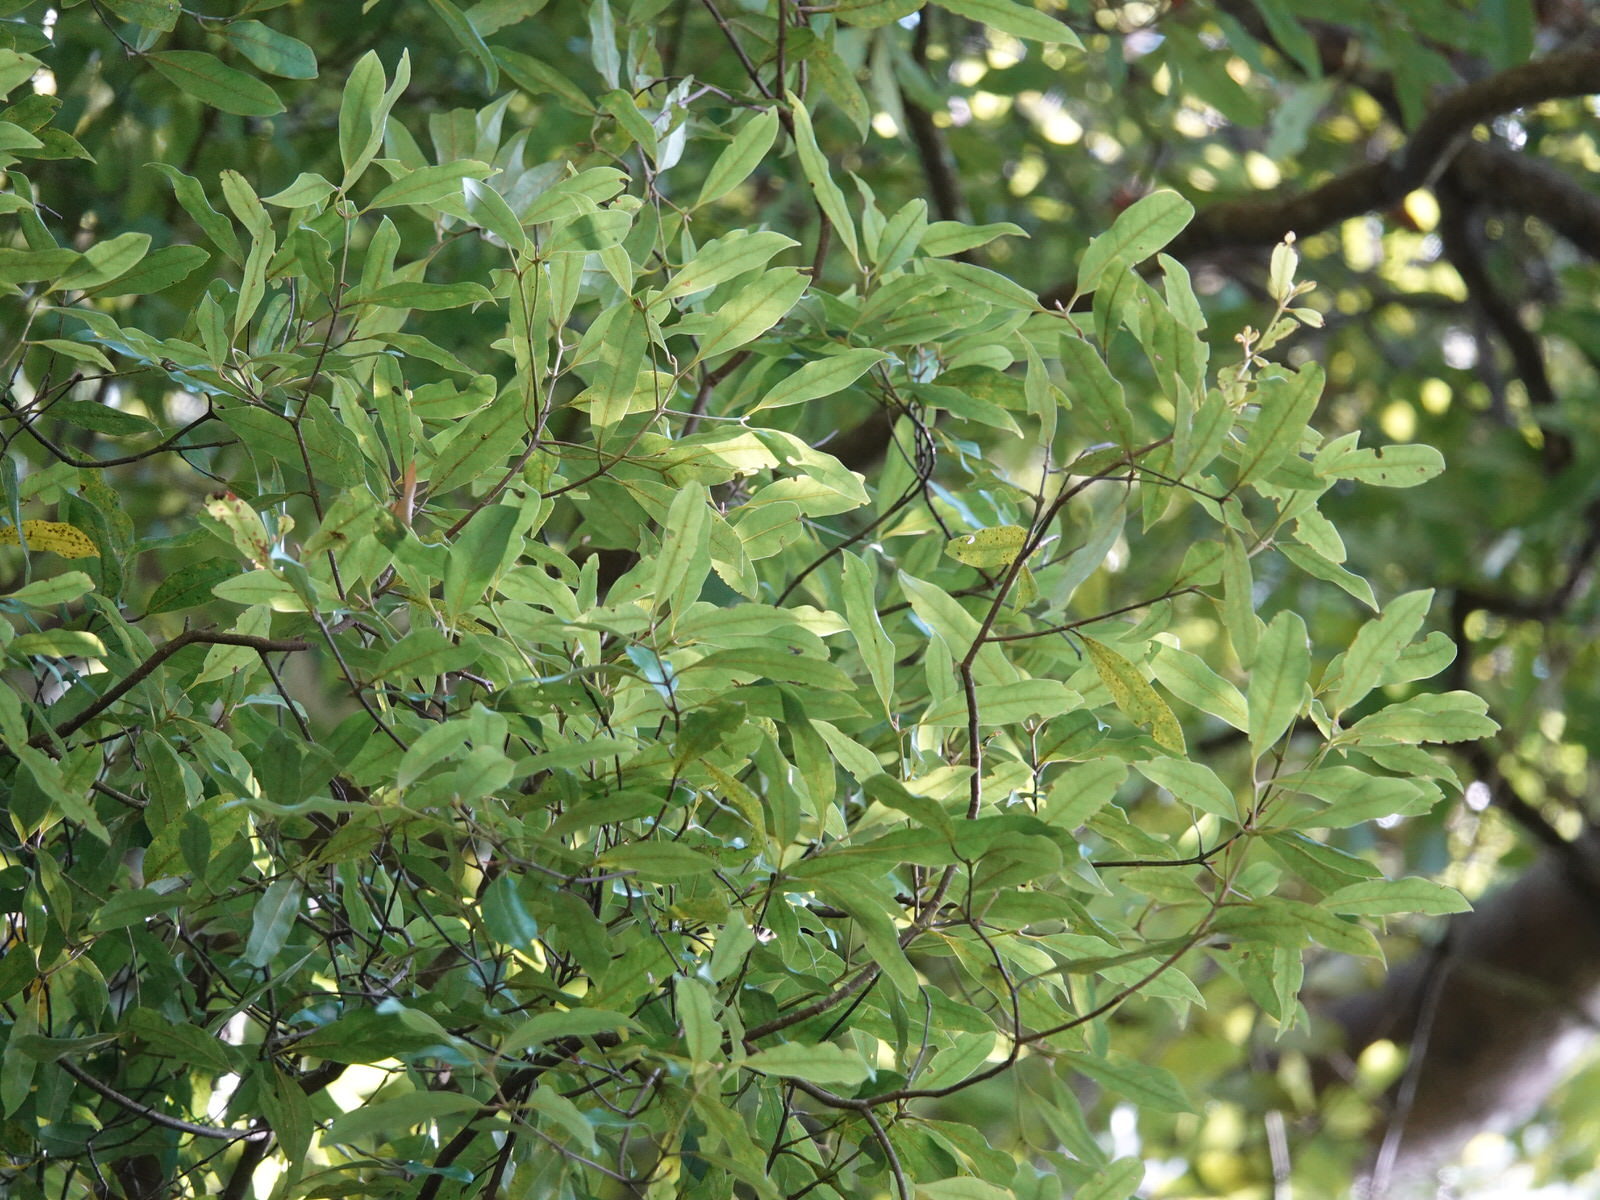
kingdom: Plantae
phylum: Tracheophyta
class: Magnoliopsida
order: Laurales
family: Lauraceae
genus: Beilschmiedia
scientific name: Beilschmiedia tawa
